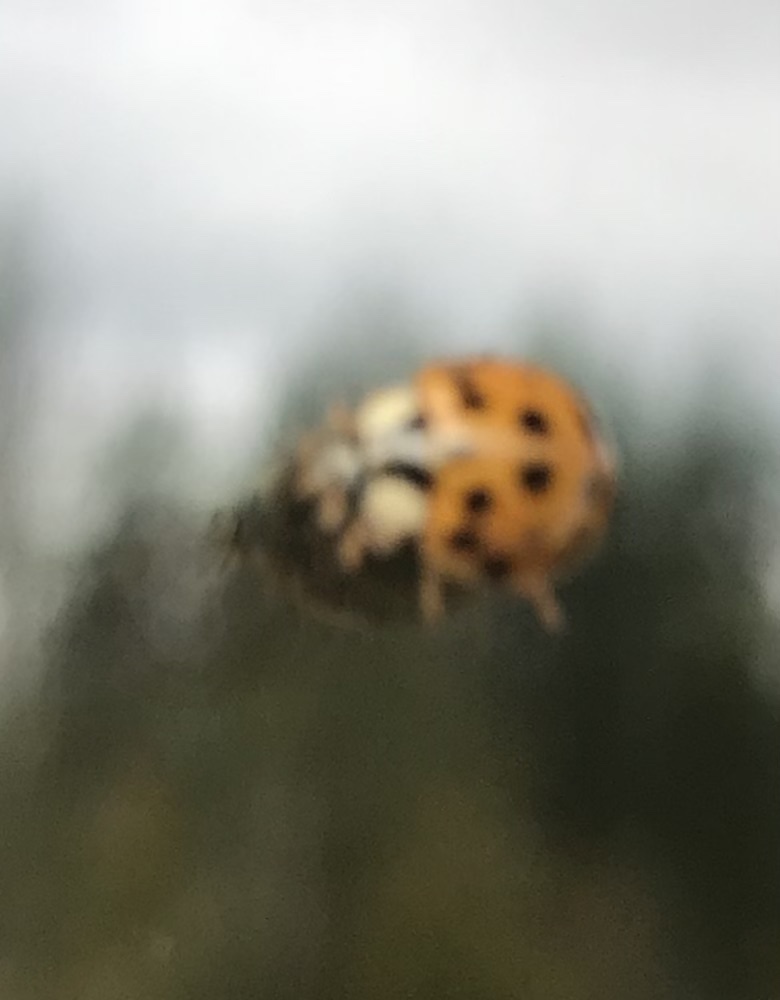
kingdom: Animalia
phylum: Arthropoda
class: Insecta
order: Coleoptera
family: Coccinellidae
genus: Harmonia
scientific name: Harmonia axyridis
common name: Harlequin ladybird
